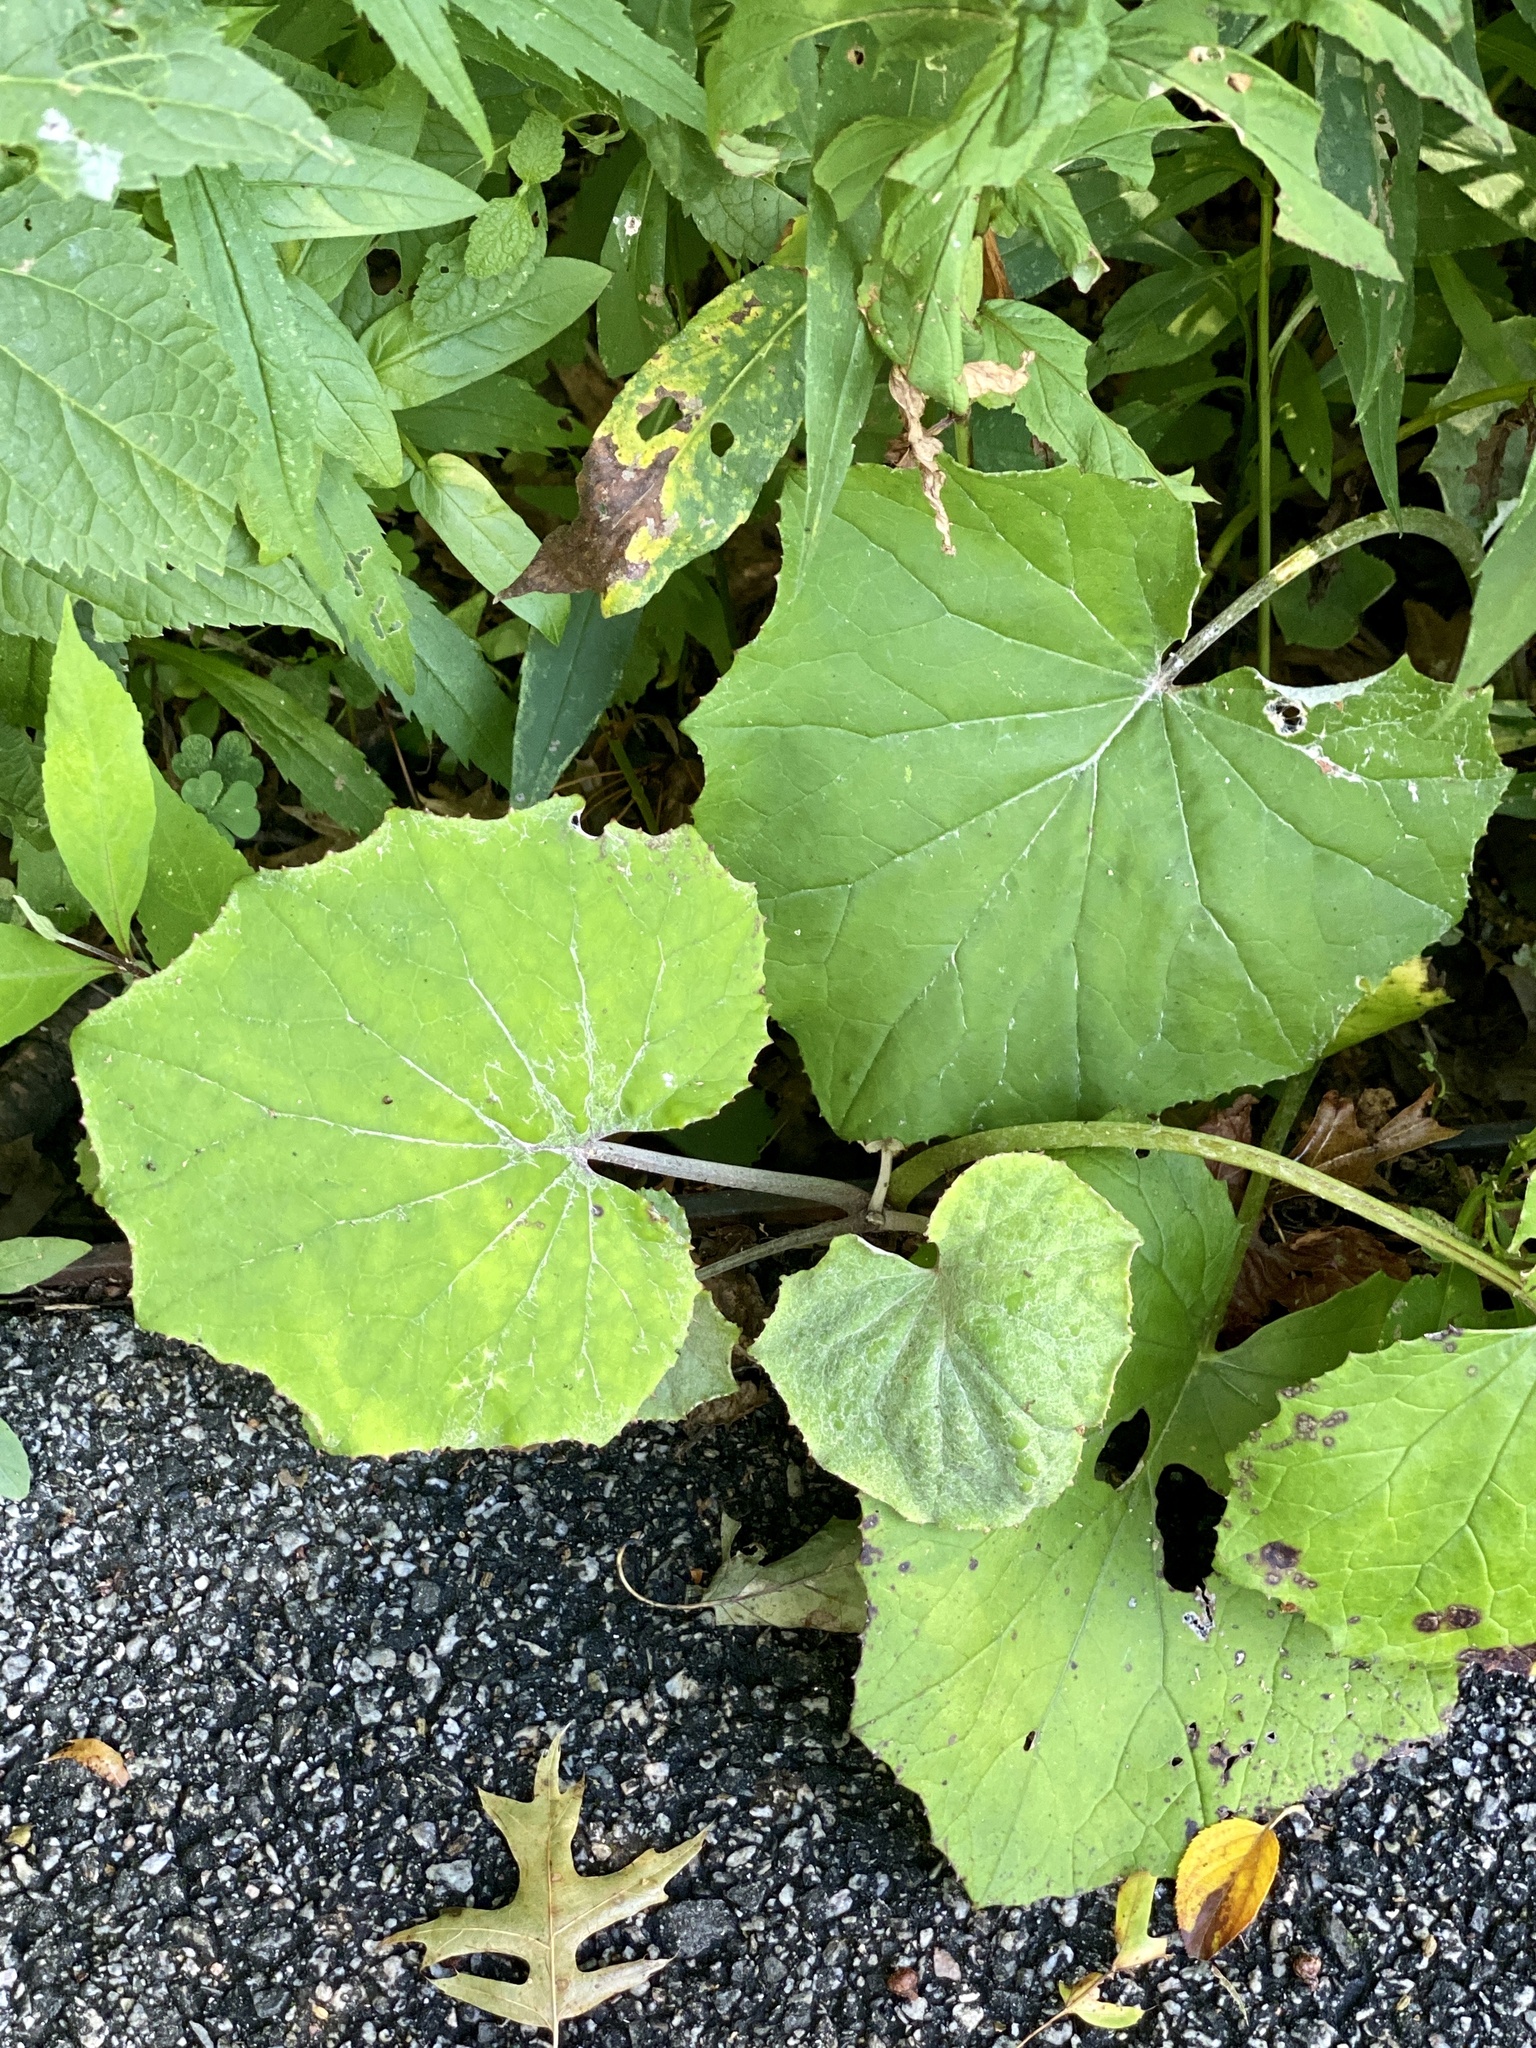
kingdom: Plantae
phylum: Tracheophyta
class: Magnoliopsida
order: Asterales
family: Asteraceae
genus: Tussilago
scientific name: Tussilago farfara
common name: Coltsfoot
